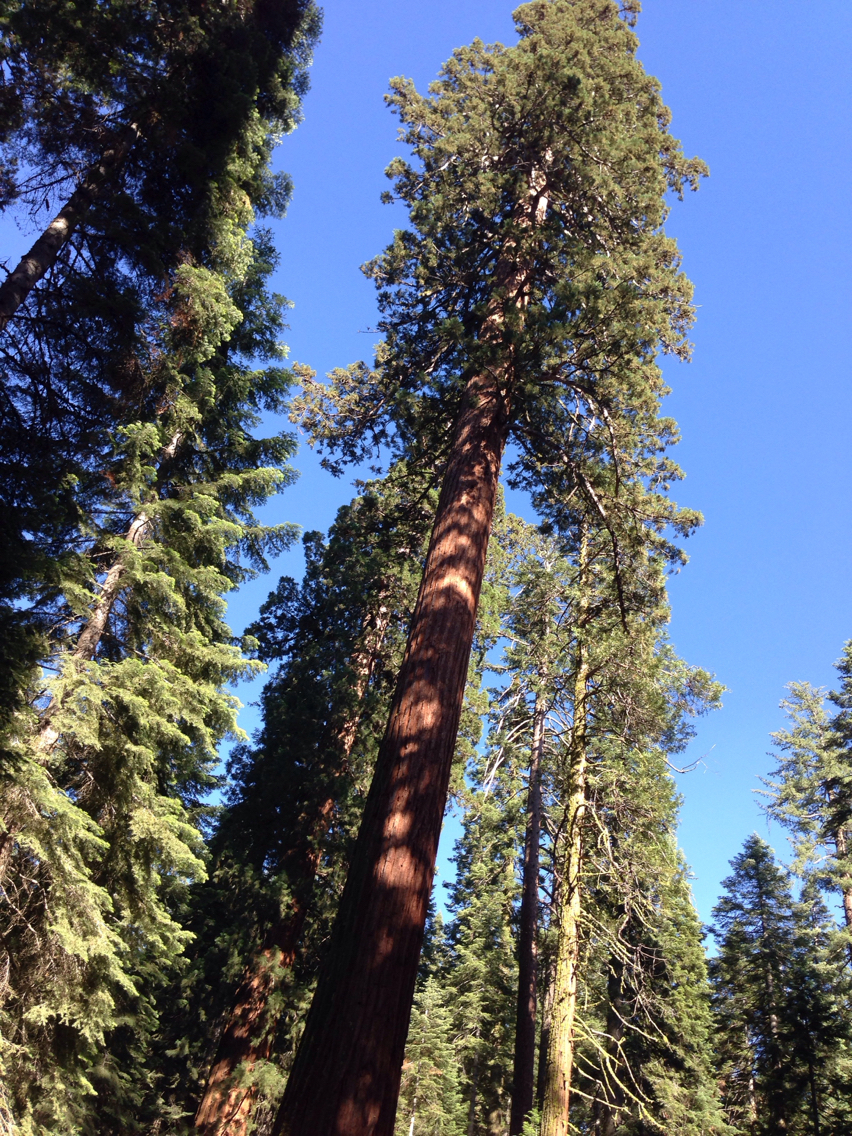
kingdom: Plantae
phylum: Tracheophyta
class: Pinopsida
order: Pinales
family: Cupressaceae
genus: Sequoiadendron
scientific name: Sequoiadendron giganteum
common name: Wellingtonia
